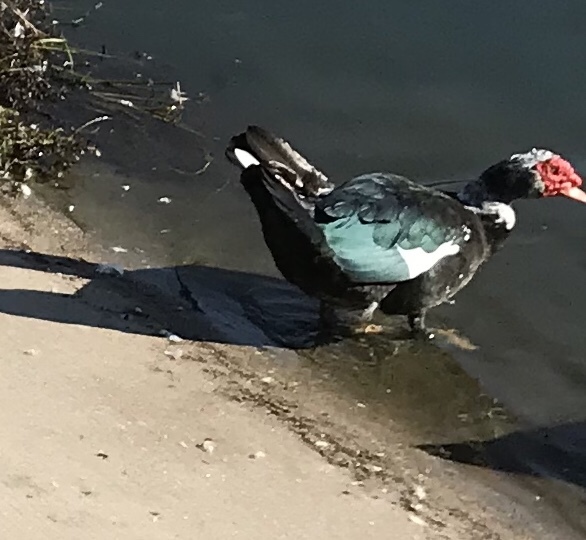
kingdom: Animalia
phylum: Chordata
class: Aves
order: Anseriformes
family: Anatidae
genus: Cairina
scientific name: Cairina moschata
